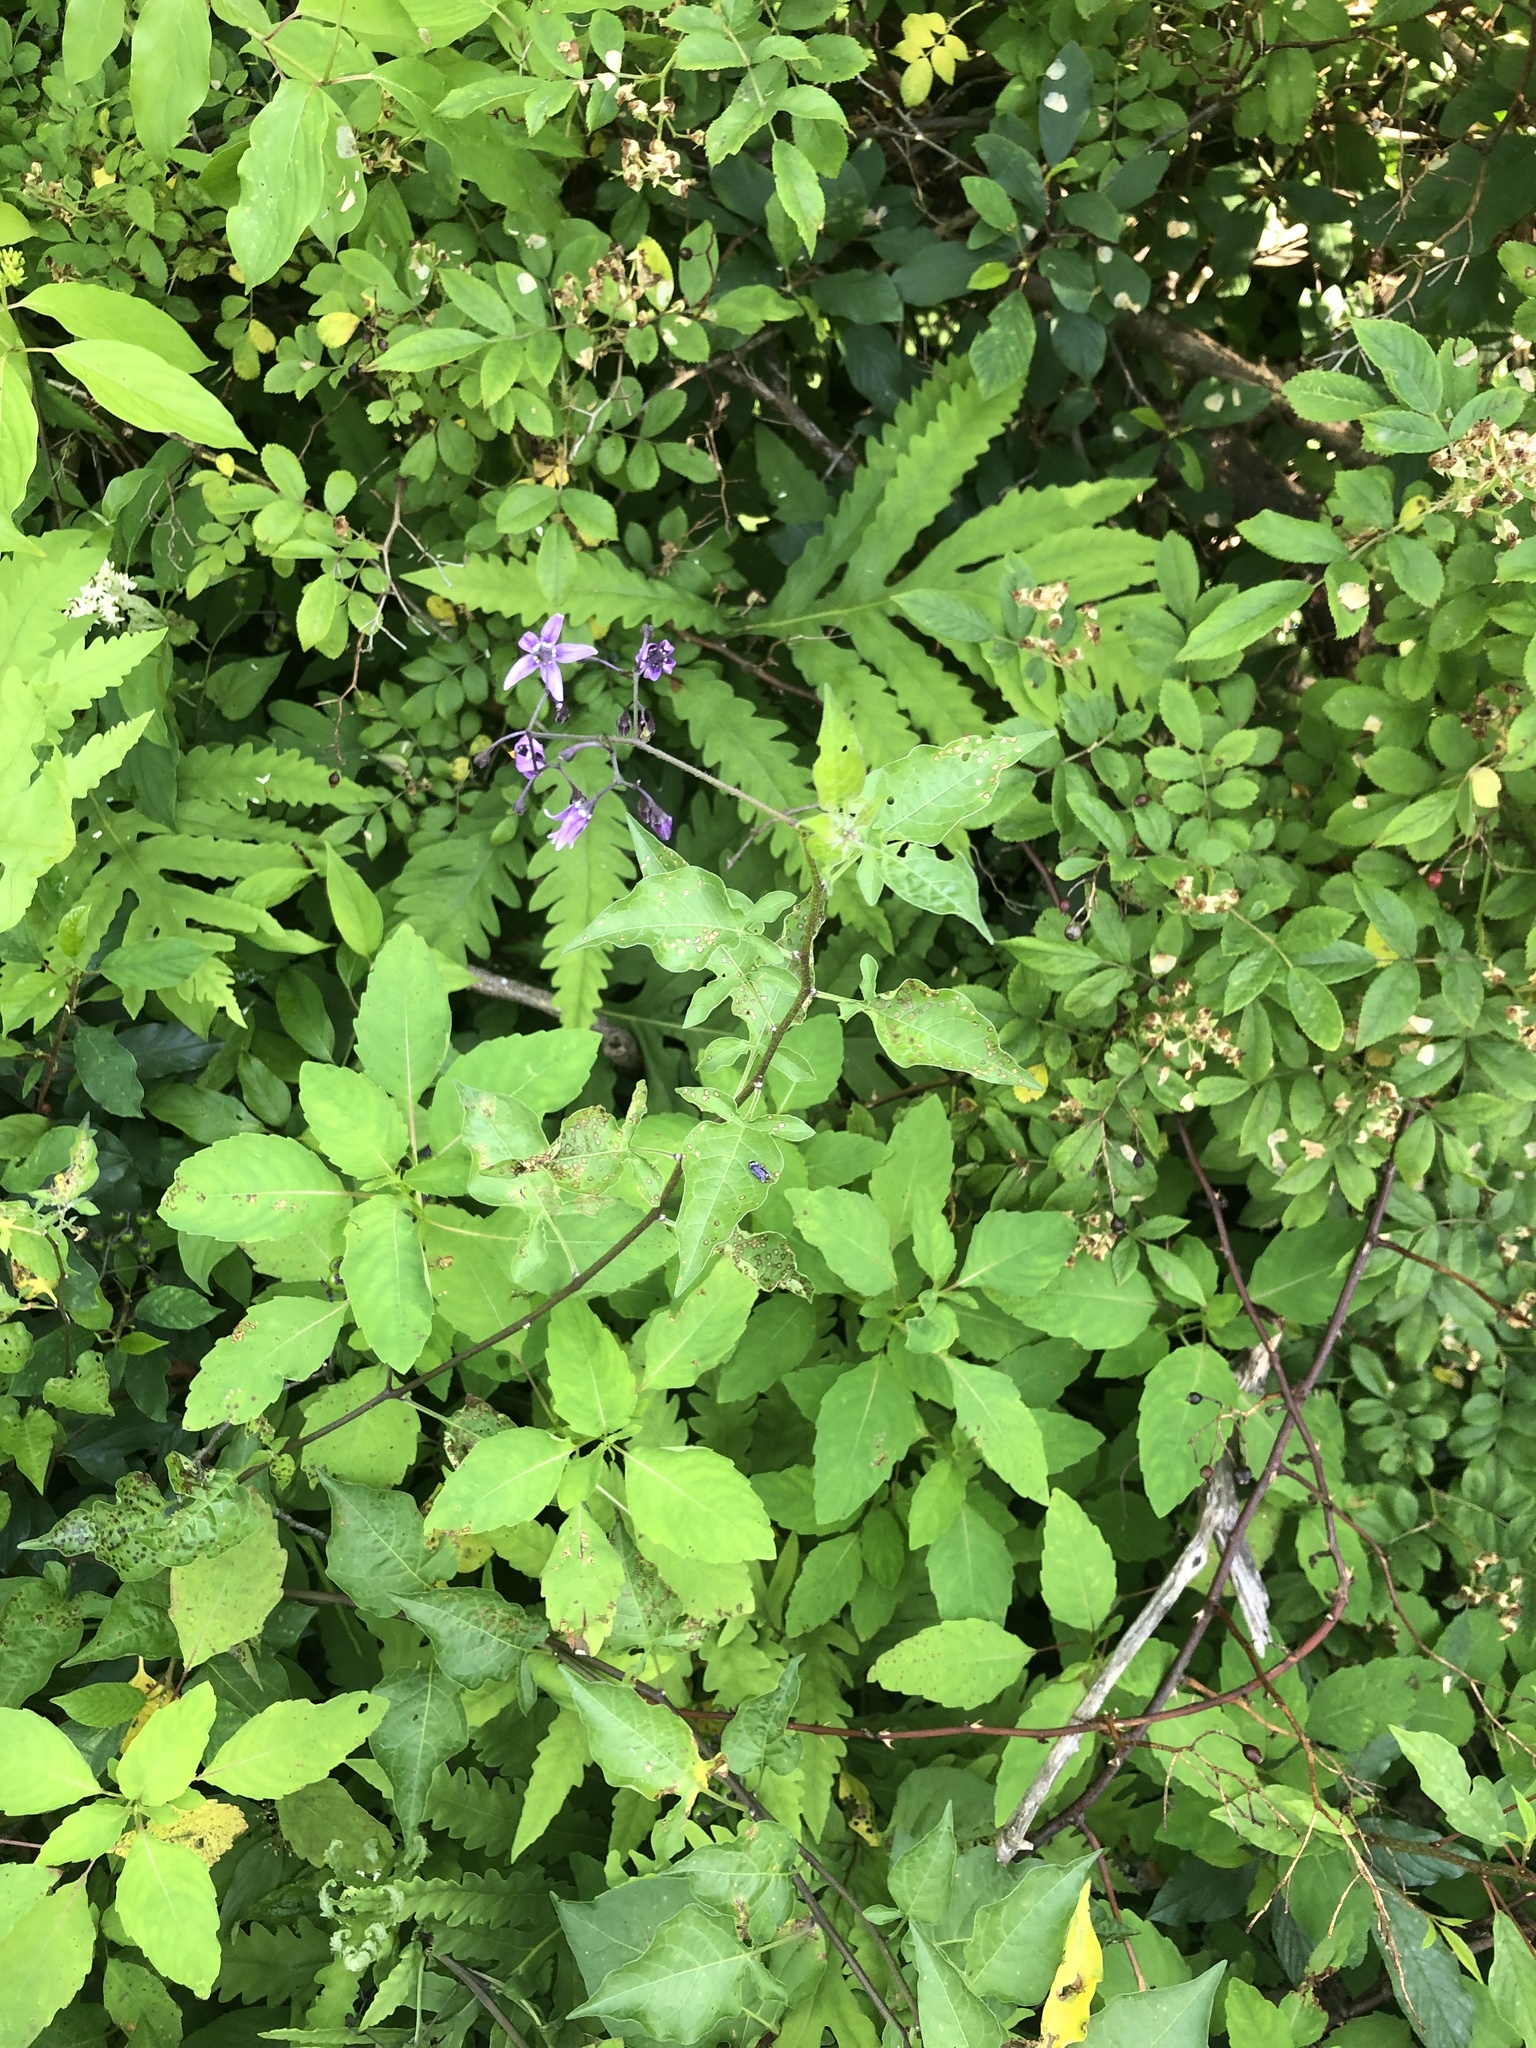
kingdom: Plantae
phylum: Tracheophyta
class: Magnoliopsida
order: Solanales
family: Solanaceae
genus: Solanum
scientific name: Solanum dulcamara
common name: Climbing nightshade
